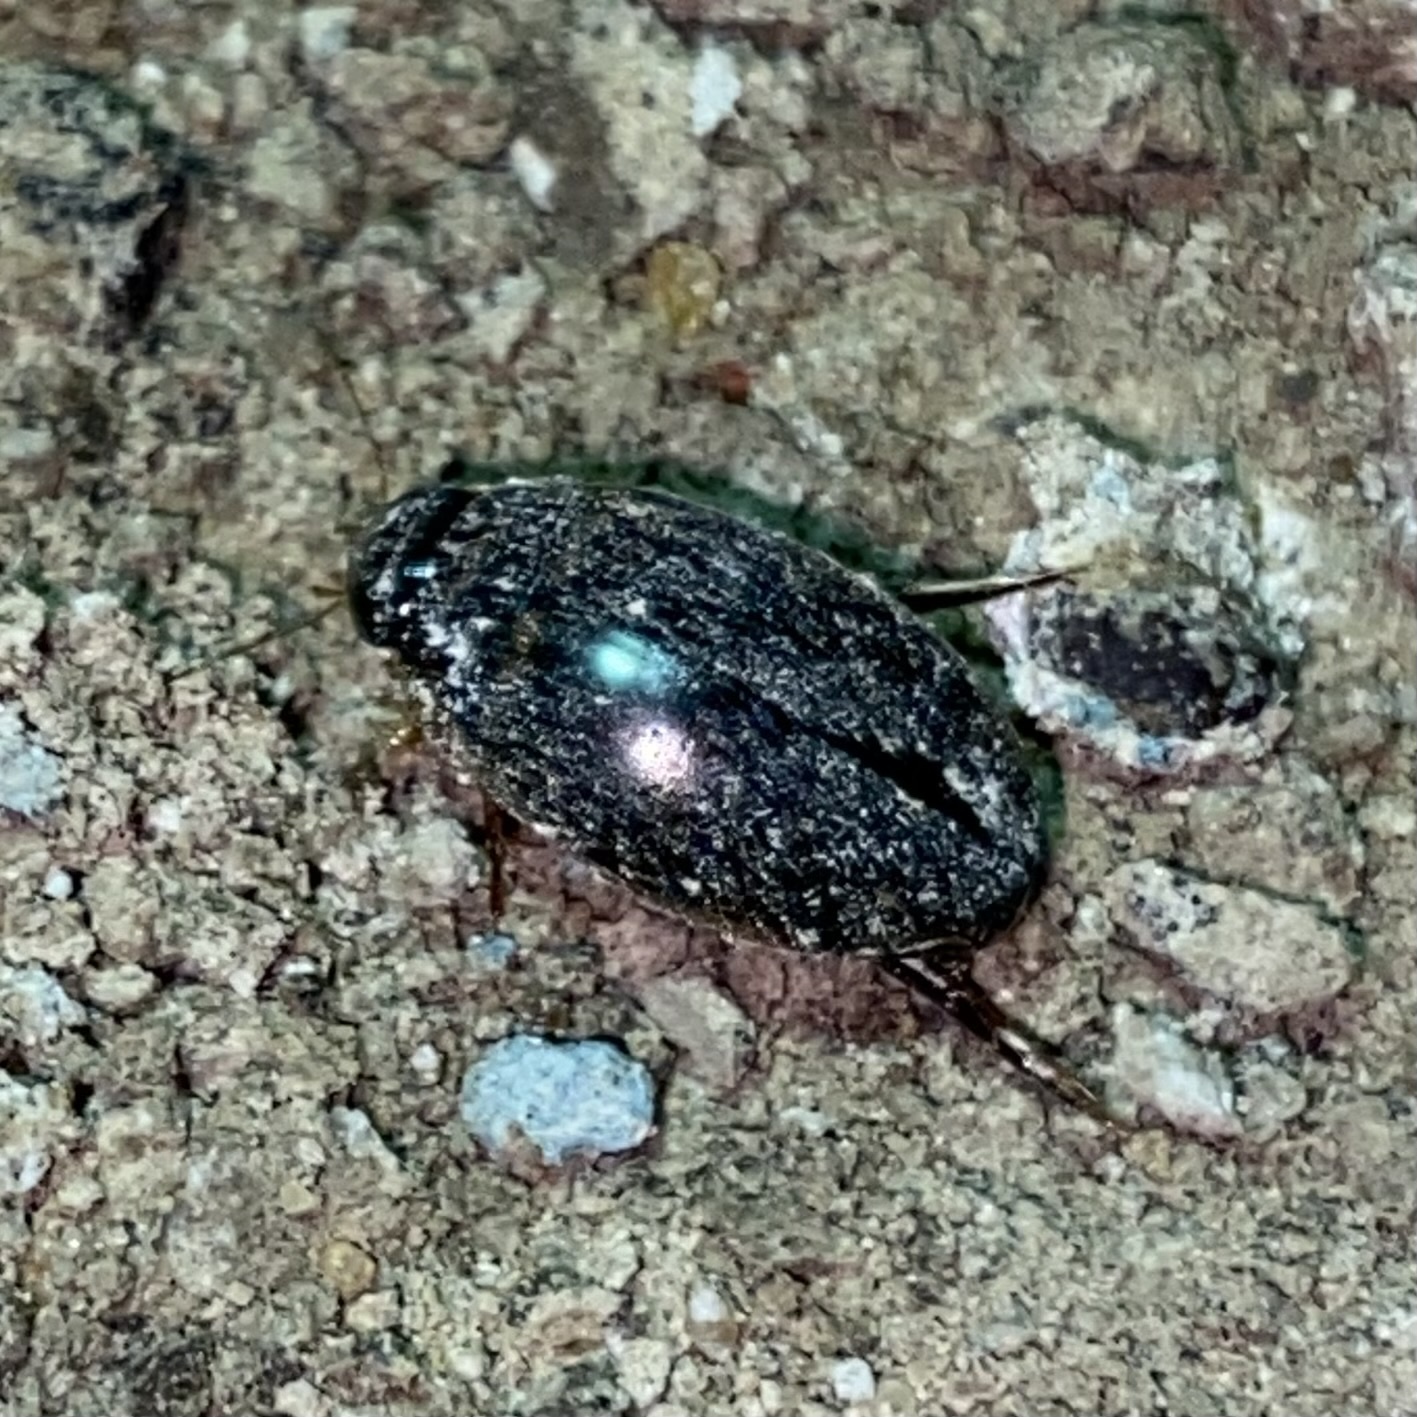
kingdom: Animalia
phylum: Arthropoda
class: Insecta
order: Coleoptera
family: Dytiscidae
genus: Thermonectus
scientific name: Thermonectus basillaris
